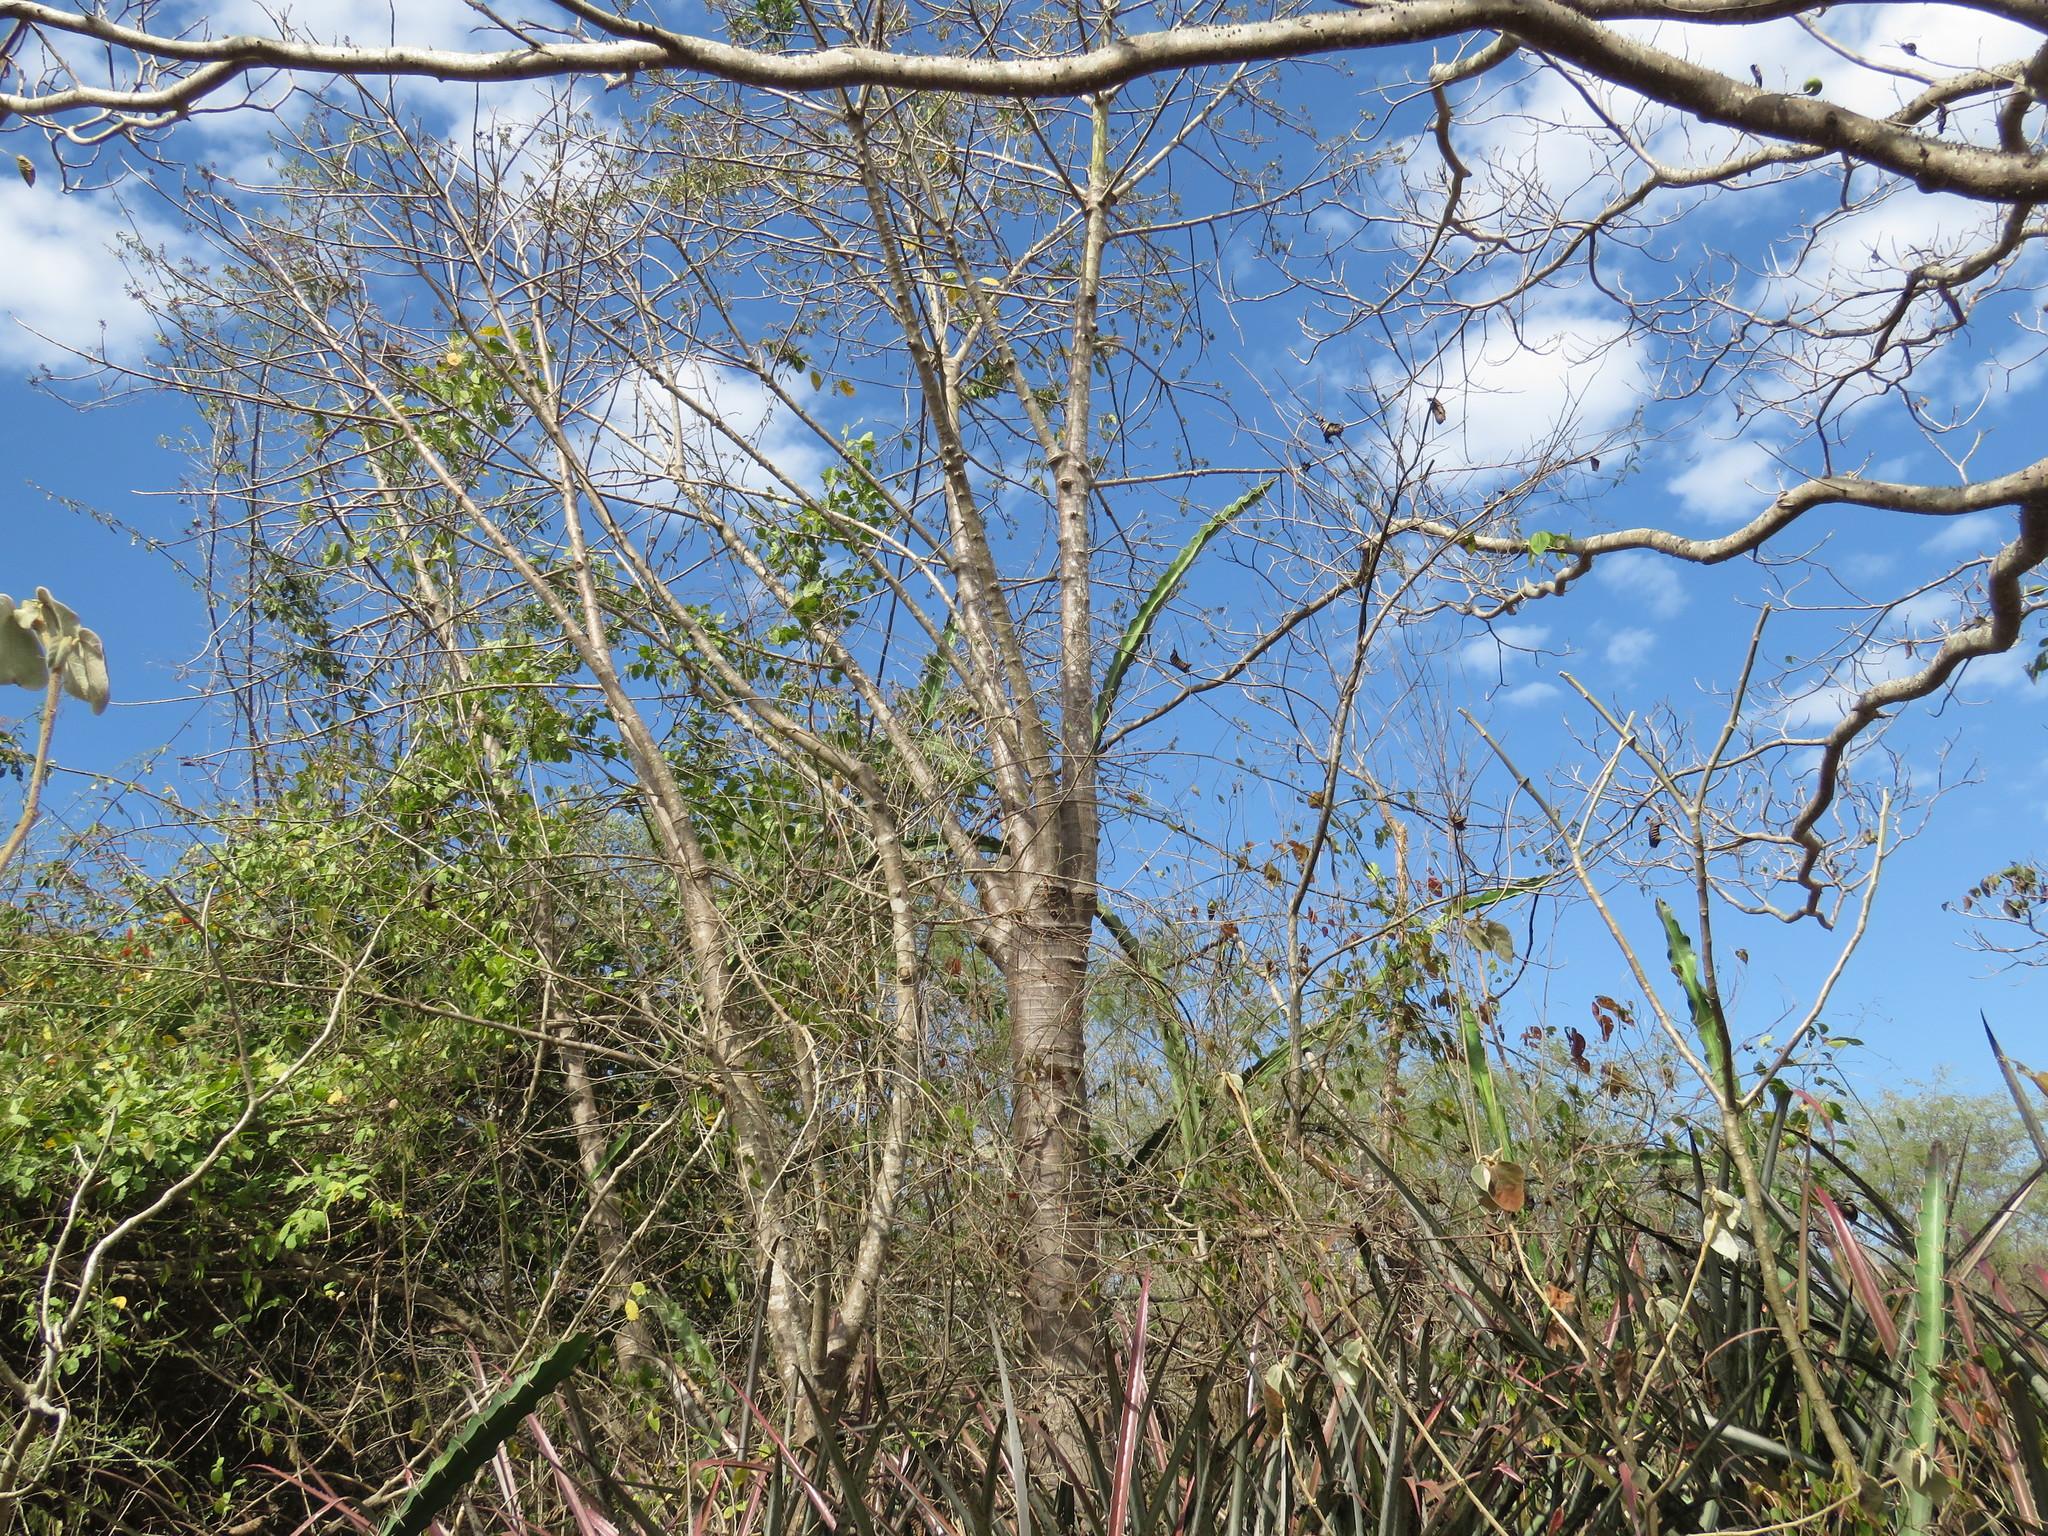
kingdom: Plantae
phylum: Tracheophyta
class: Magnoliopsida
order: Brassicales
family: Caricaceae
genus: Jacaratia
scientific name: Jacaratia mexicana
